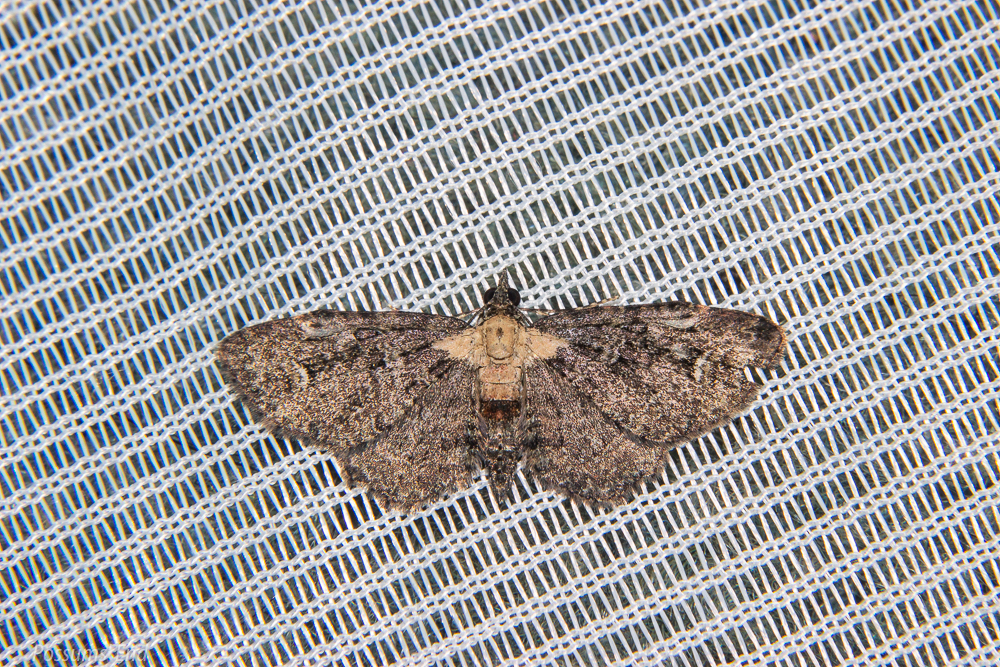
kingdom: Animalia
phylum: Arthropoda
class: Insecta
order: Lepidoptera
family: Geometridae
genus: Pasiphilodes
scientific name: Pasiphilodes testulata
